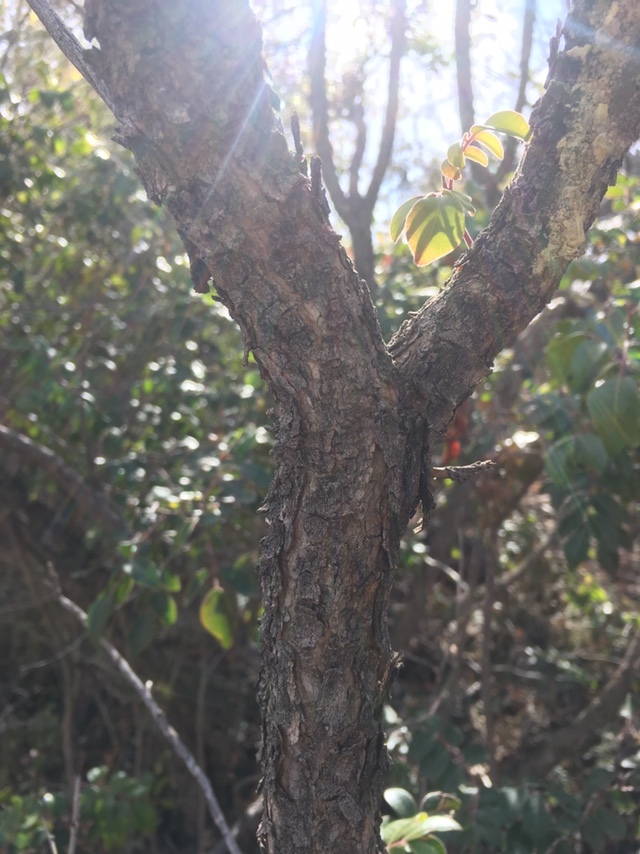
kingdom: Plantae
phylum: Tracheophyta
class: Magnoliopsida
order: Sapindales
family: Anacardiaceae
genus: Rhus
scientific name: Rhus virens
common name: Evergreen sumac
